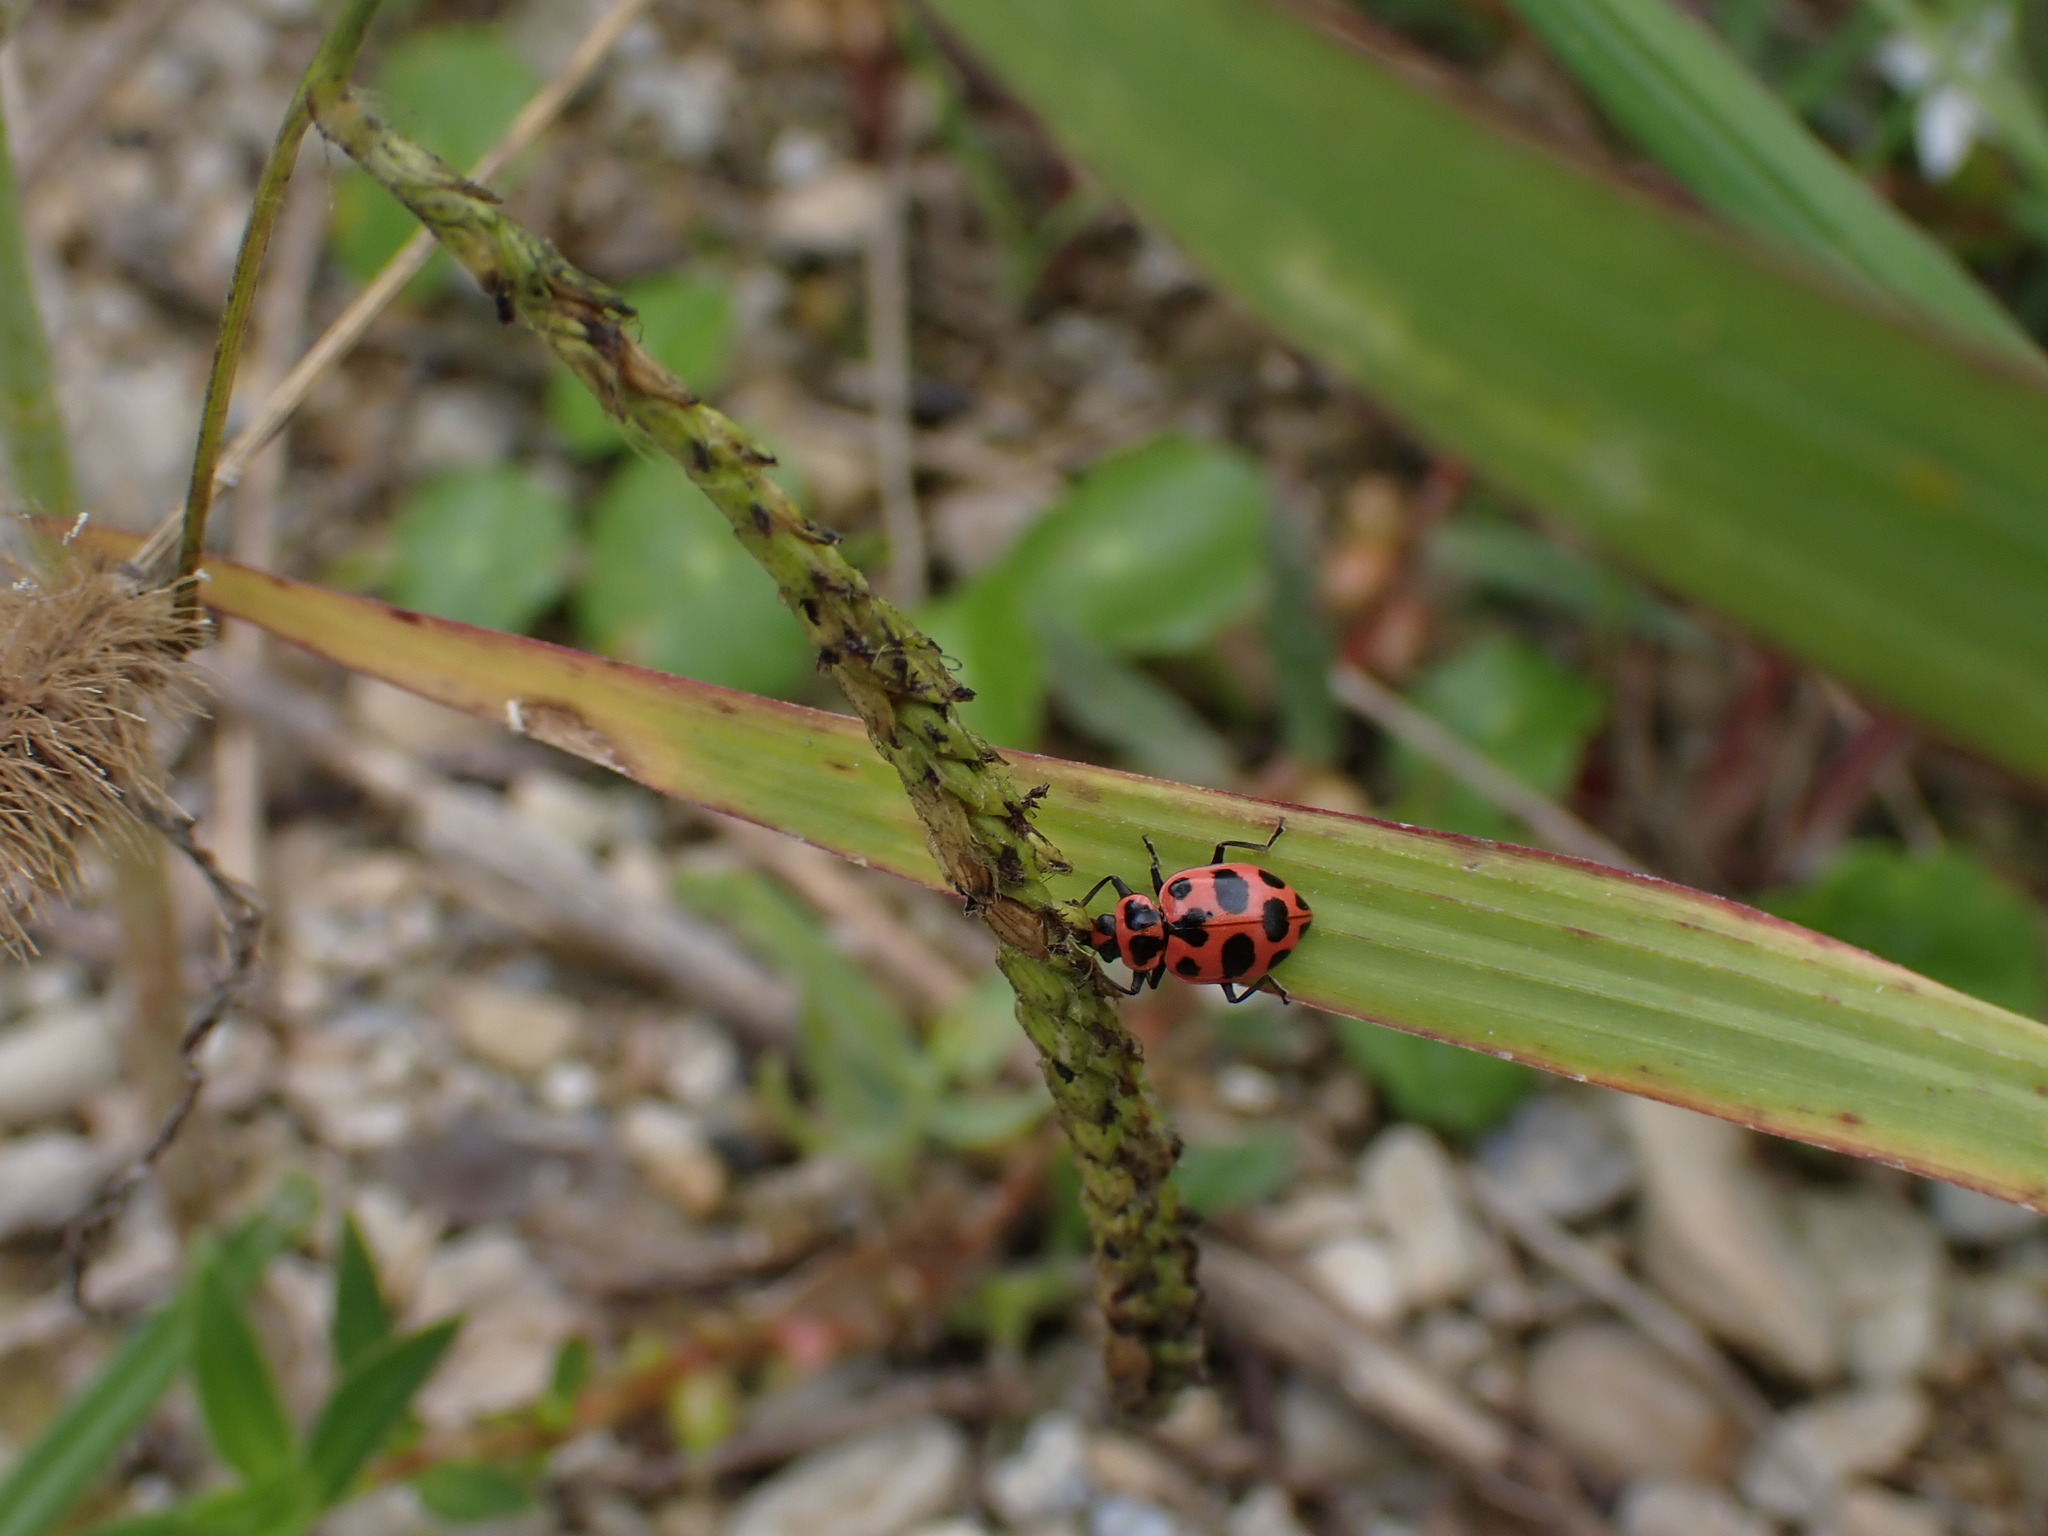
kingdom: Animalia
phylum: Arthropoda
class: Insecta
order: Coleoptera
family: Coccinellidae
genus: Coleomegilla
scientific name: Coleomegilla maculata
